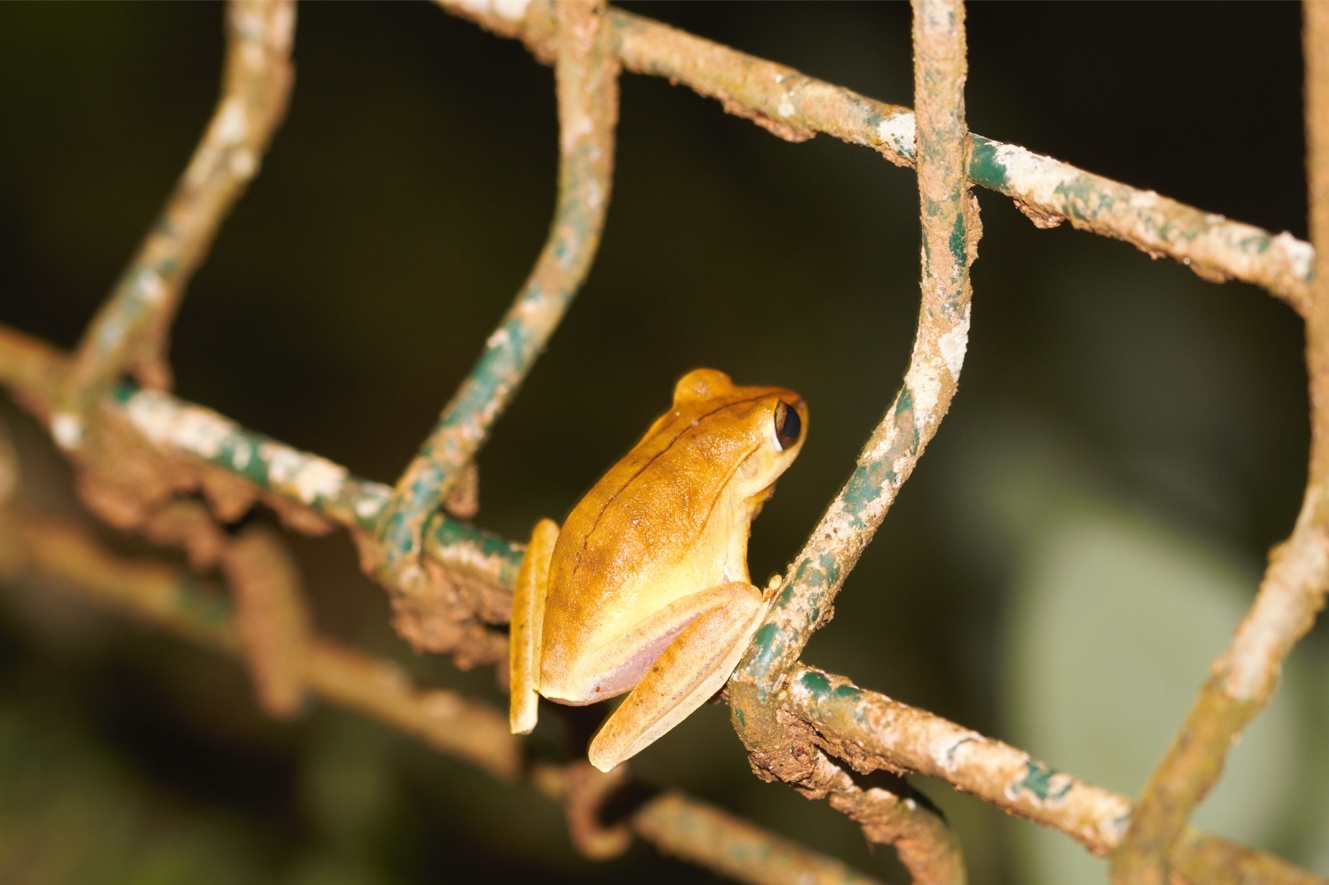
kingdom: Animalia
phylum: Chordata
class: Amphibia
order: Anura
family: Hylidae
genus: Boana
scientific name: Boana multifasciata
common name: Many-banded treefrog
